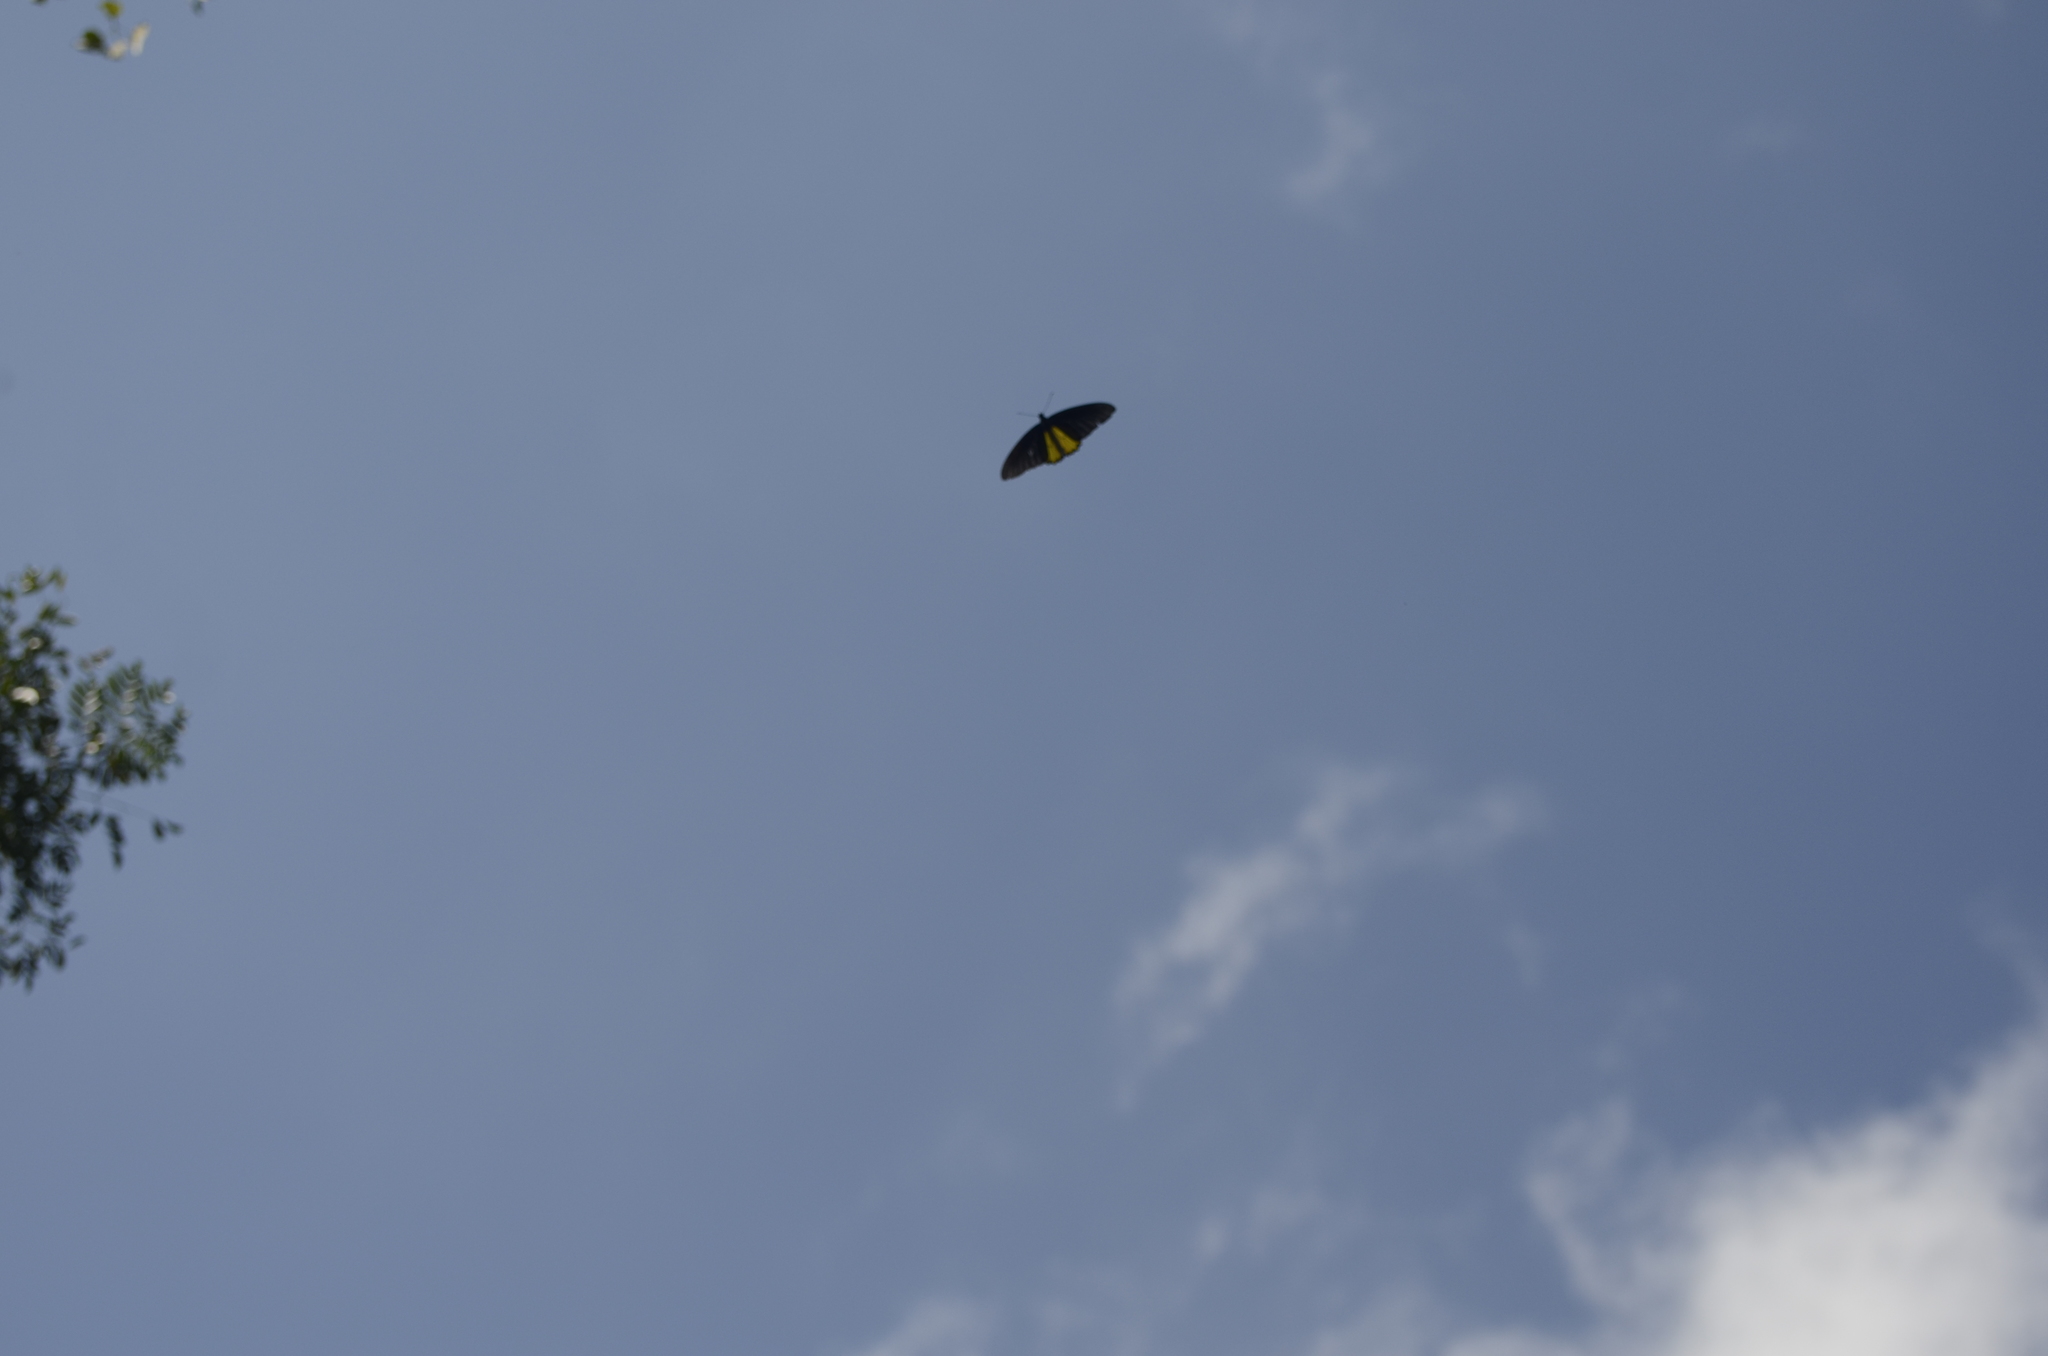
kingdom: Animalia
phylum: Arthropoda
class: Insecta
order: Lepidoptera
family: Papilionidae
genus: Troides
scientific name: Troides helena
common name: Common birdwing
